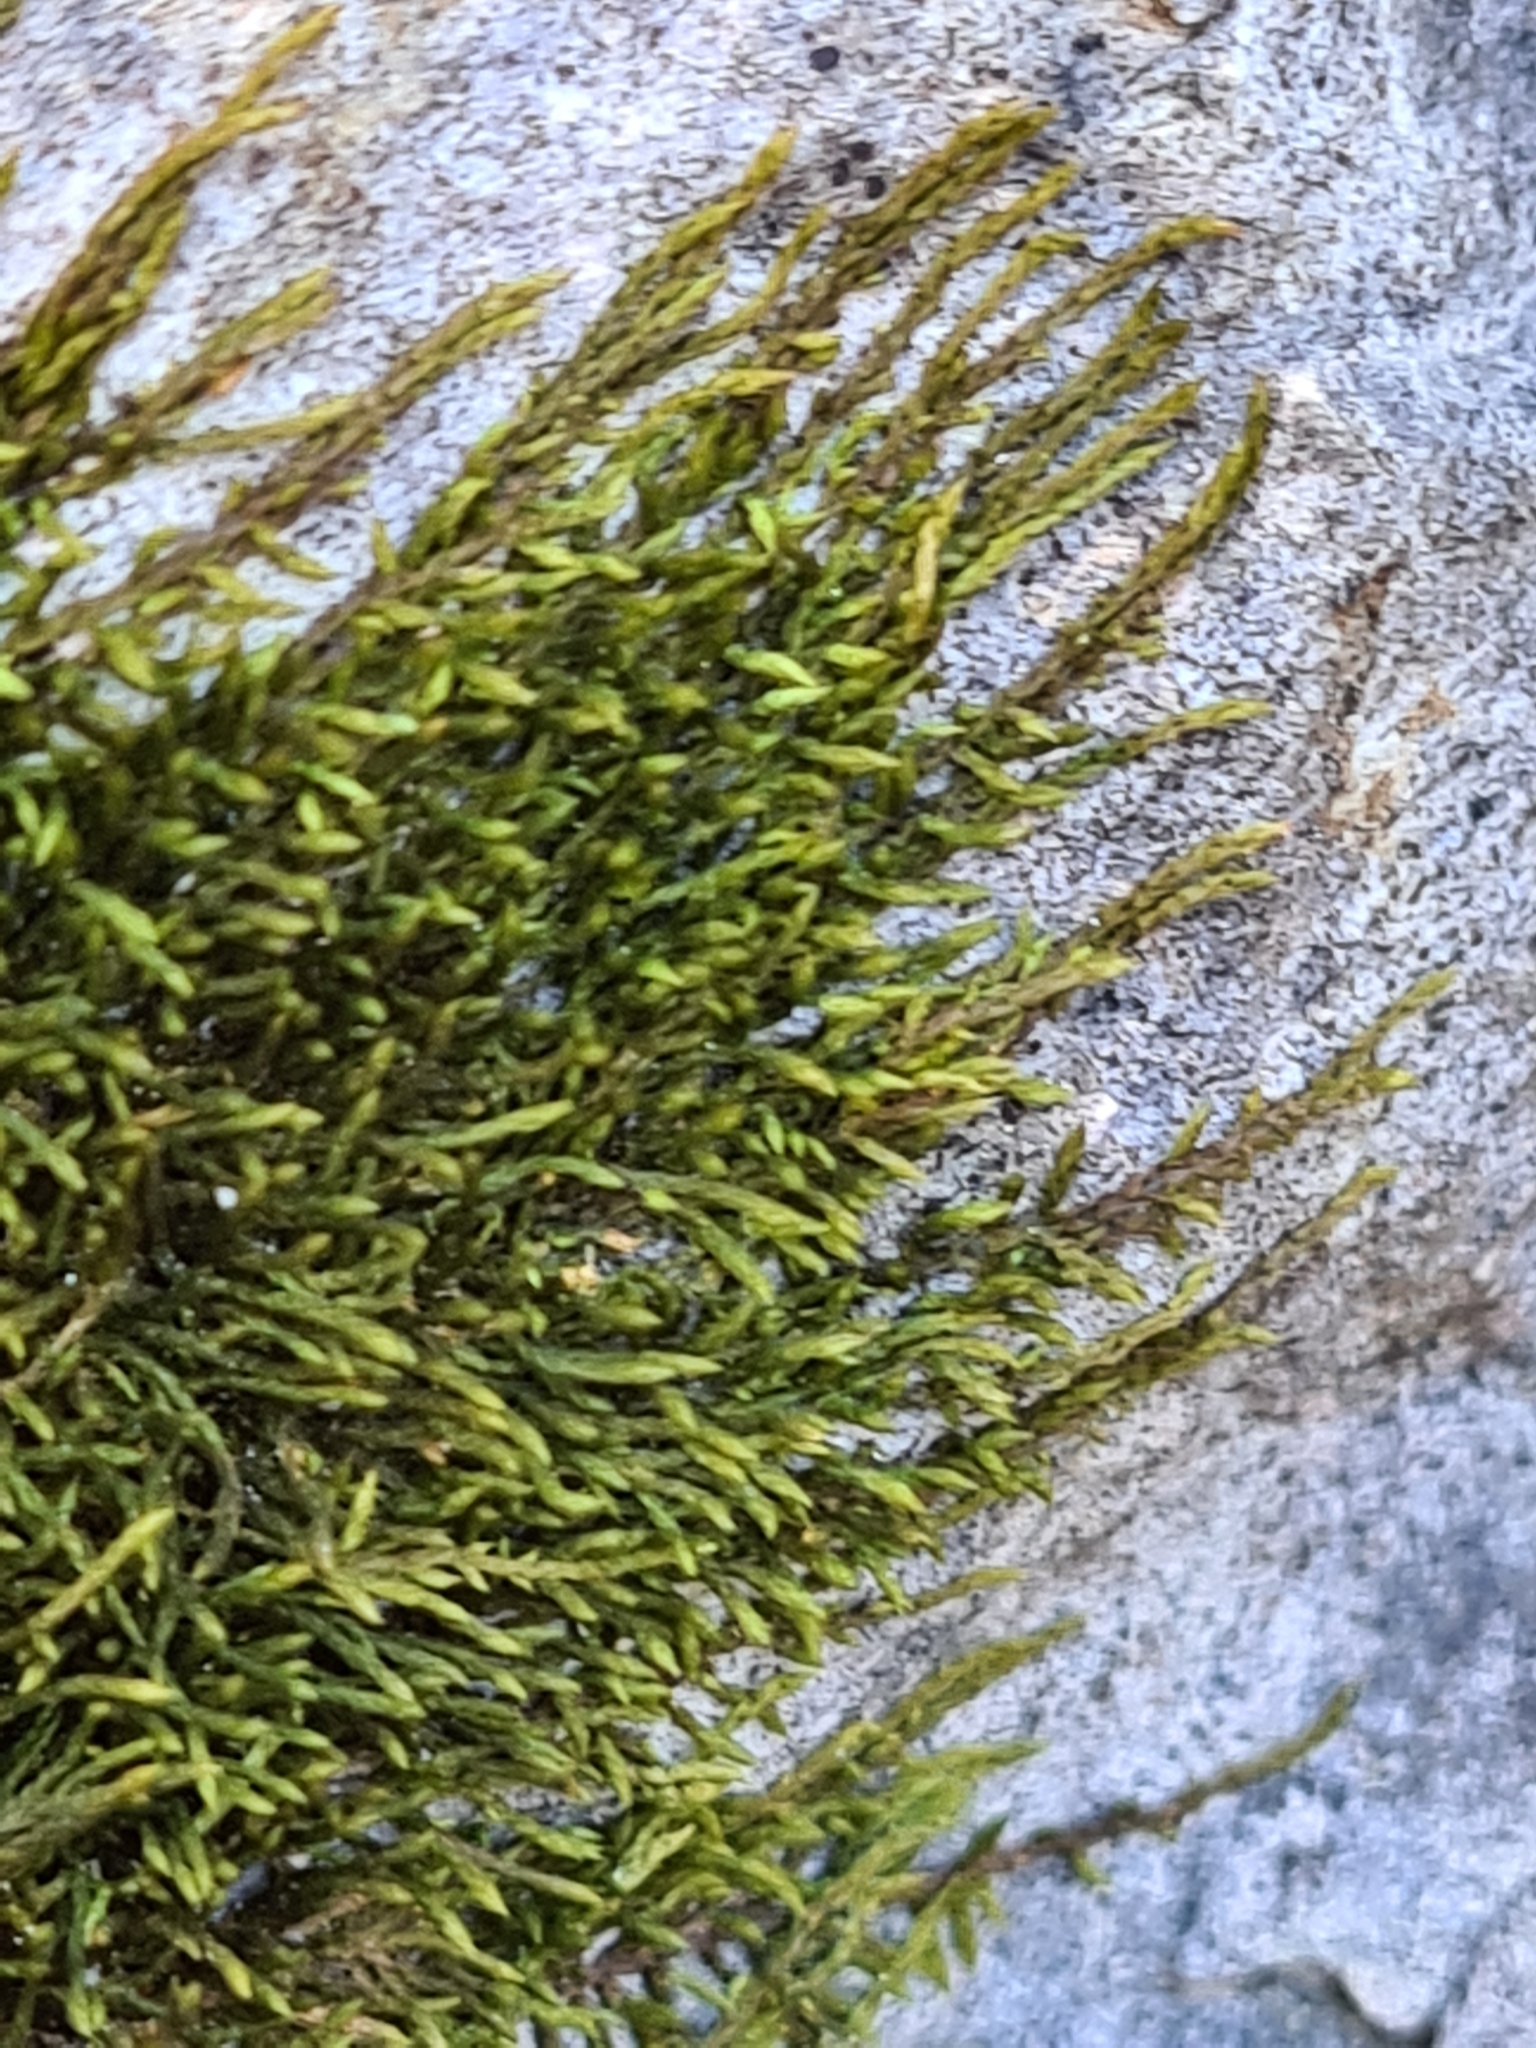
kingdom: Plantae
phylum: Bryophyta
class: Bryopsida
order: Hypnales
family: Pseudoleskeaceae
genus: Lescuraea
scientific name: Lescuraea incurvata
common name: Brown mountain leskea
